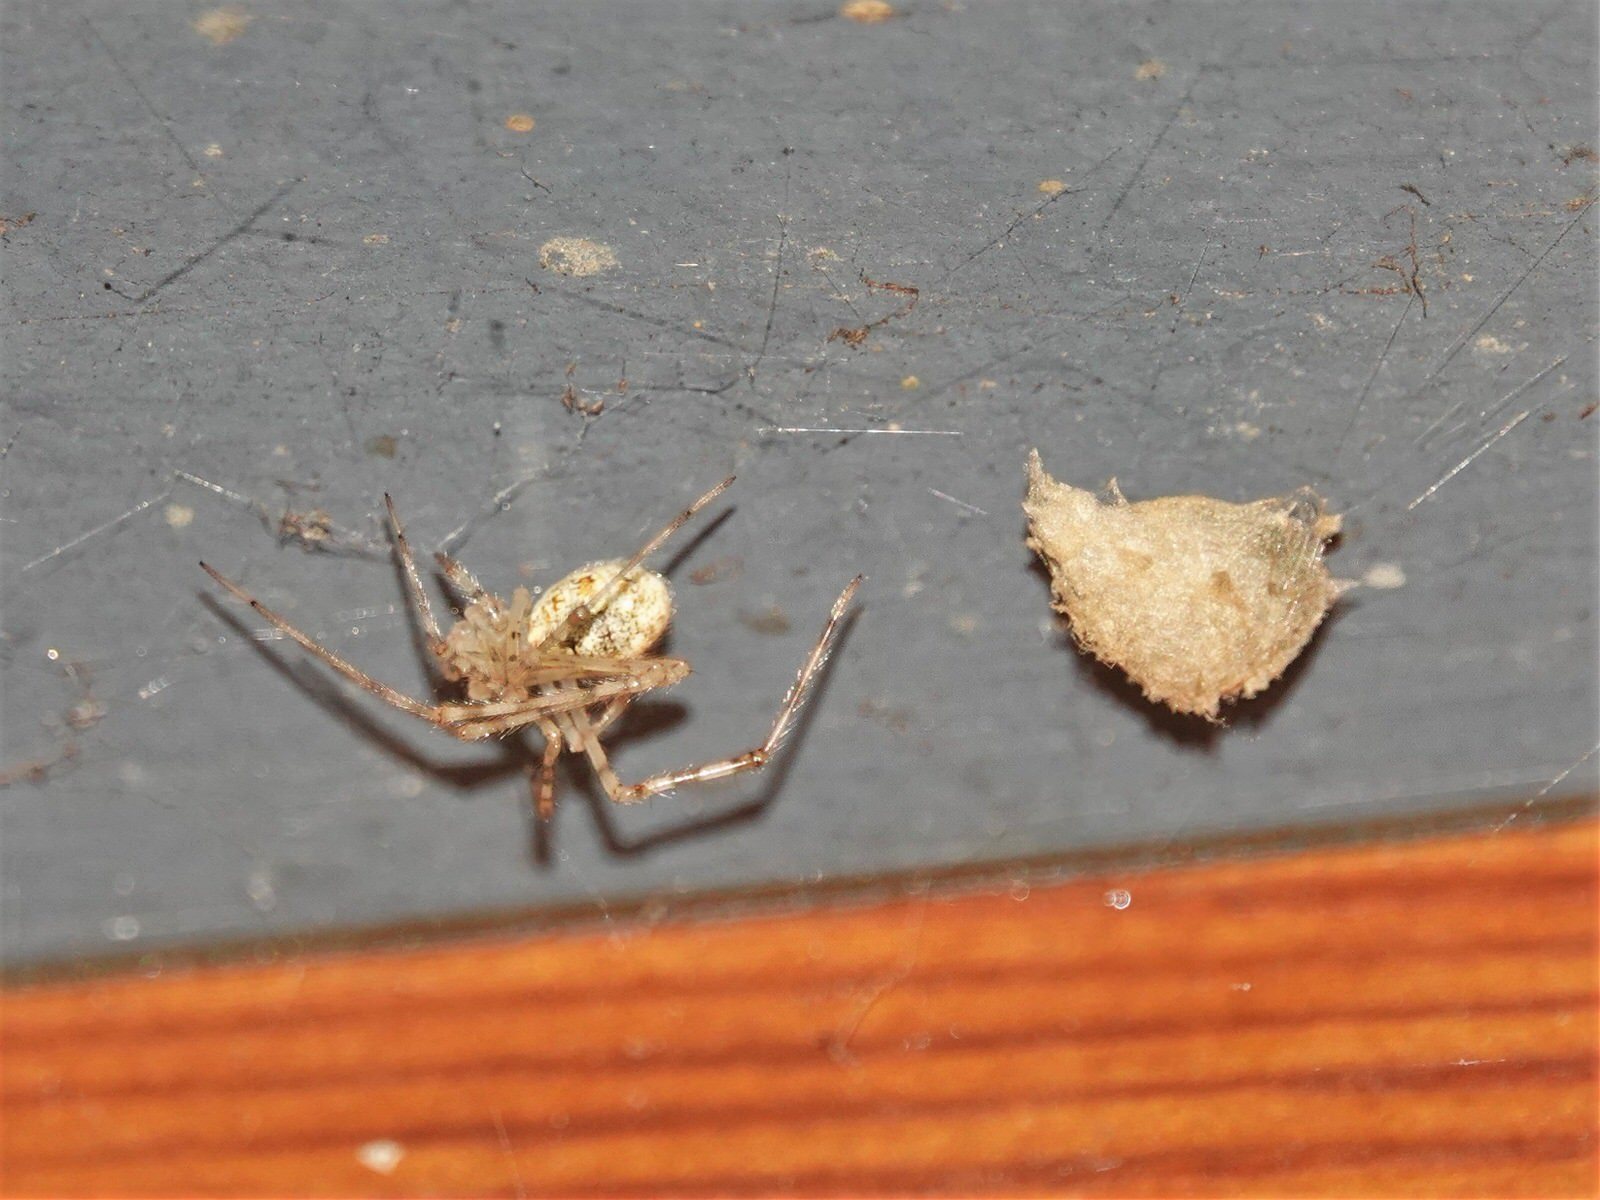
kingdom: Animalia
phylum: Arthropoda
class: Arachnida
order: Araneae
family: Theridiidae
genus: Cryptachaea
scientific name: Cryptachaea gigantipes
